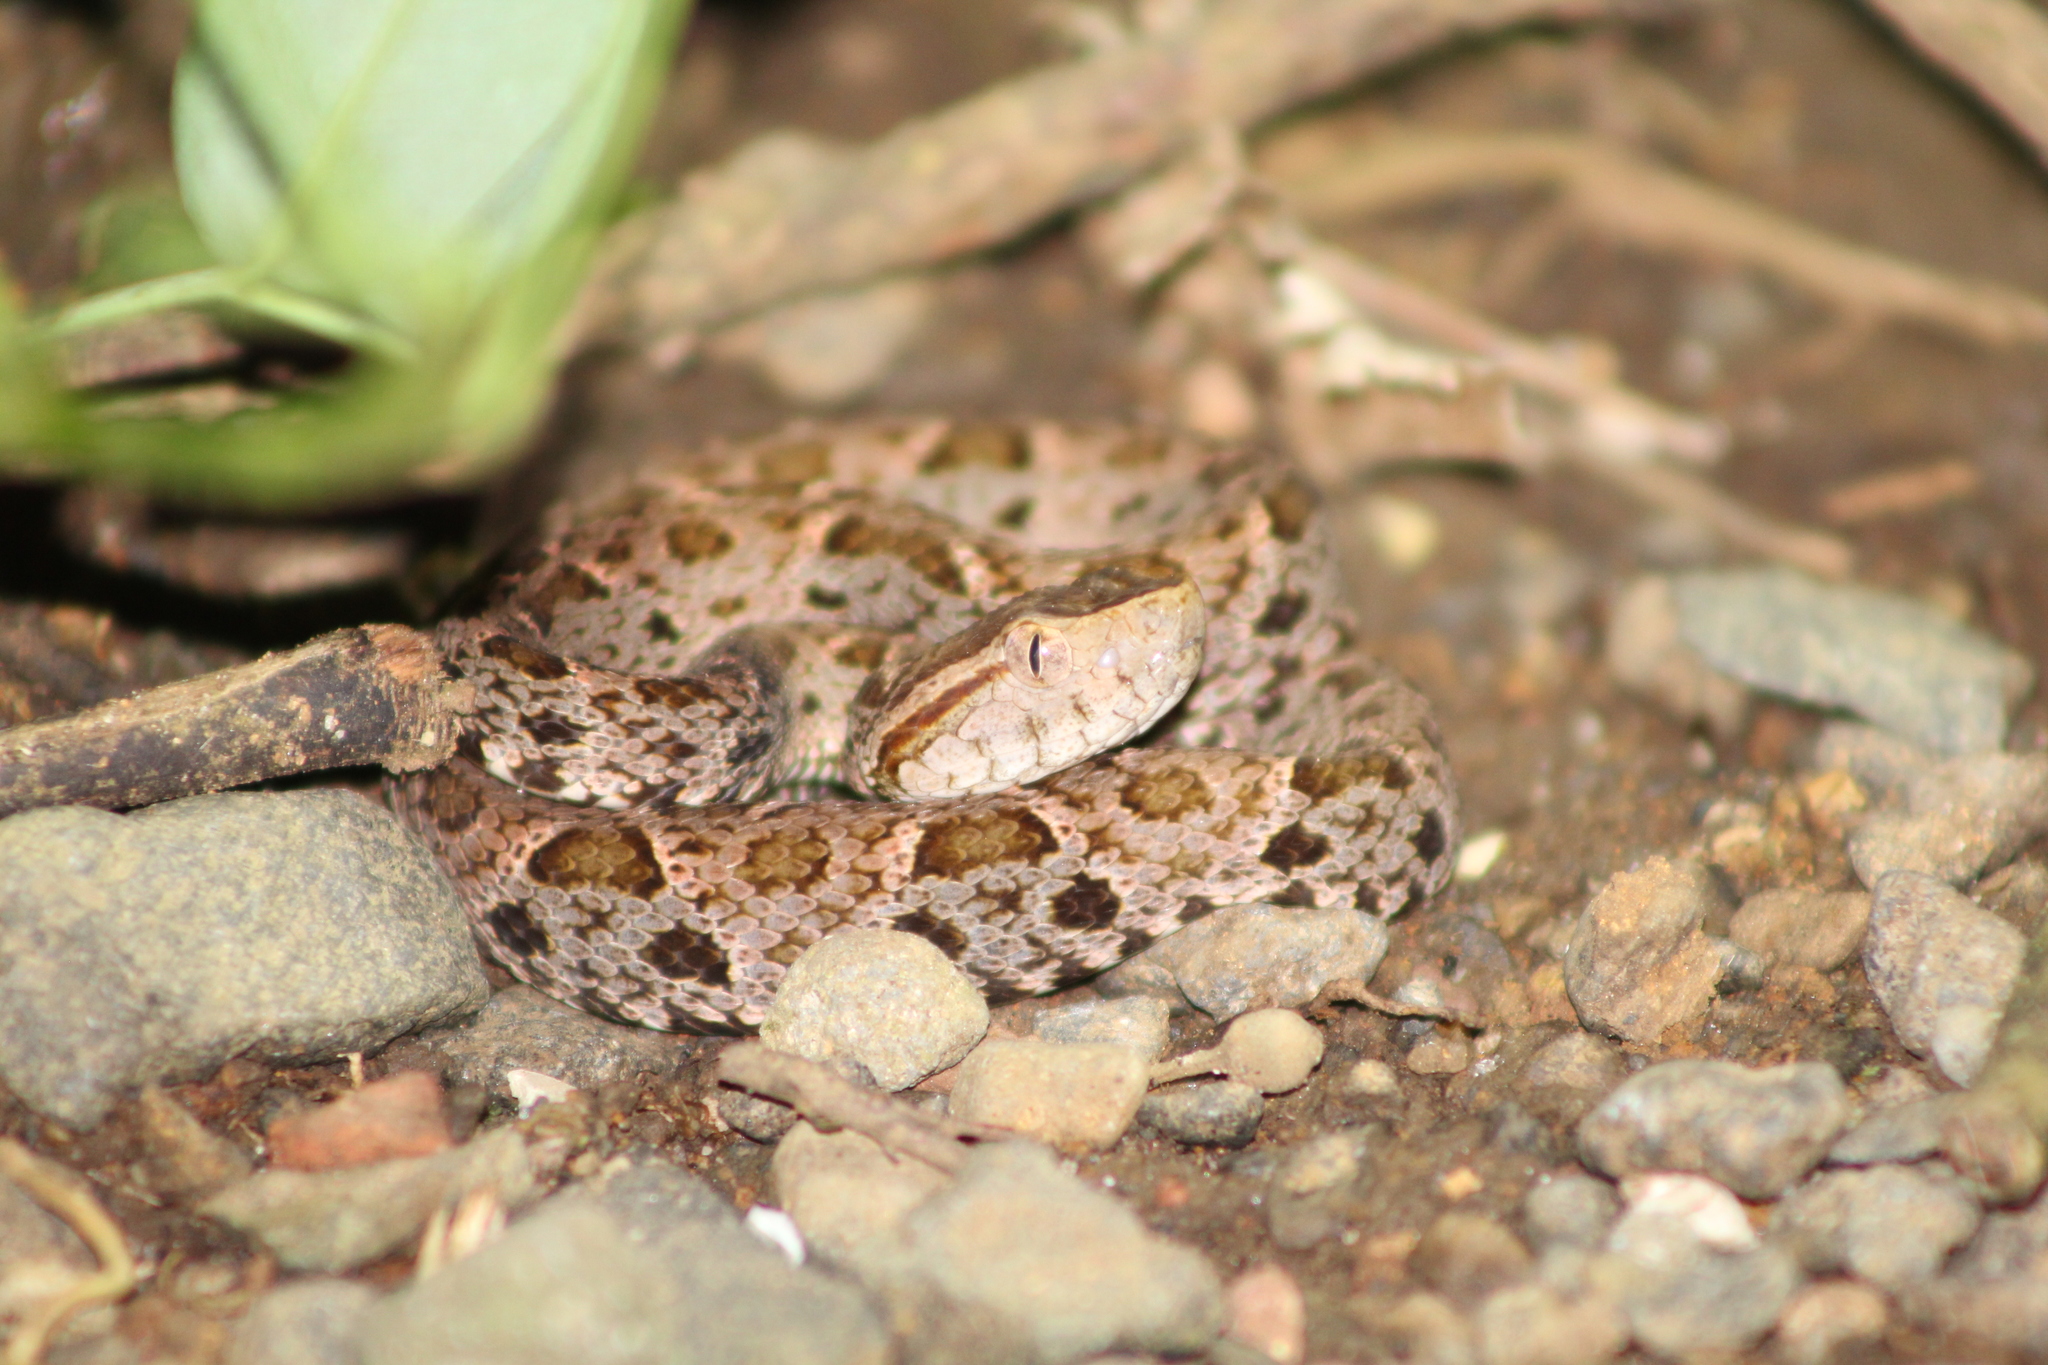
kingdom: Animalia
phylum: Chordata
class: Squamata
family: Viperidae
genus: Bothrops
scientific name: Bothrops asper
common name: Terciopelo
